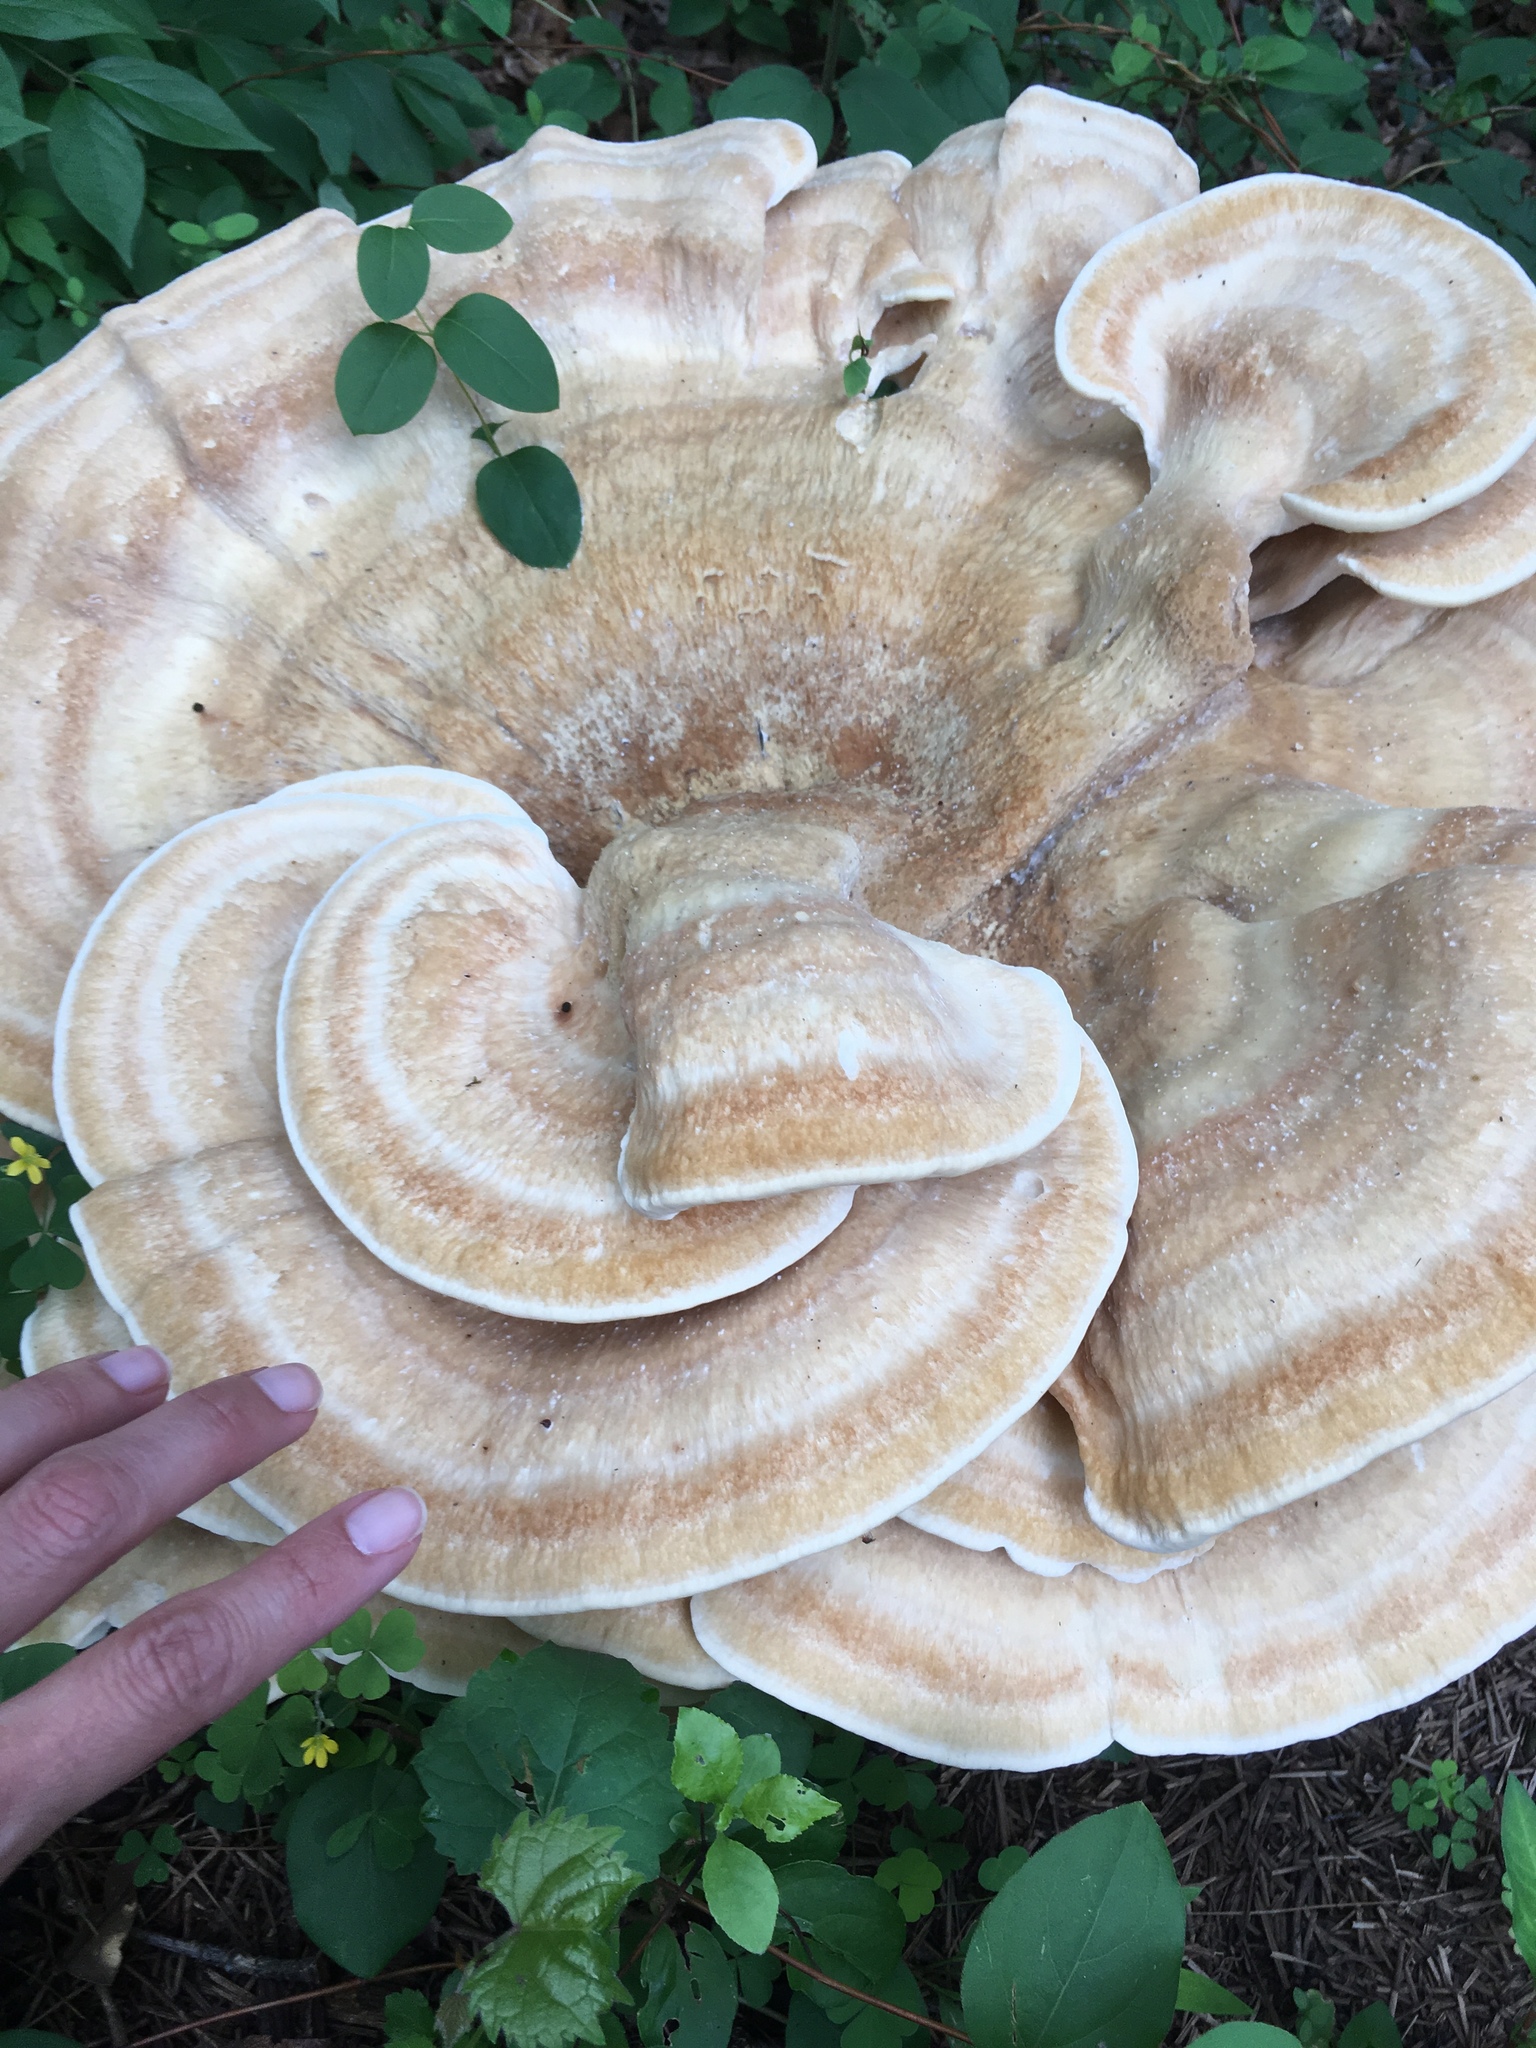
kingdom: Fungi
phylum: Basidiomycota
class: Agaricomycetes
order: Russulales
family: Bondarzewiaceae
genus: Bondarzewia
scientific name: Bondarzewia berkeleyi
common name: Berkeley's polypore
